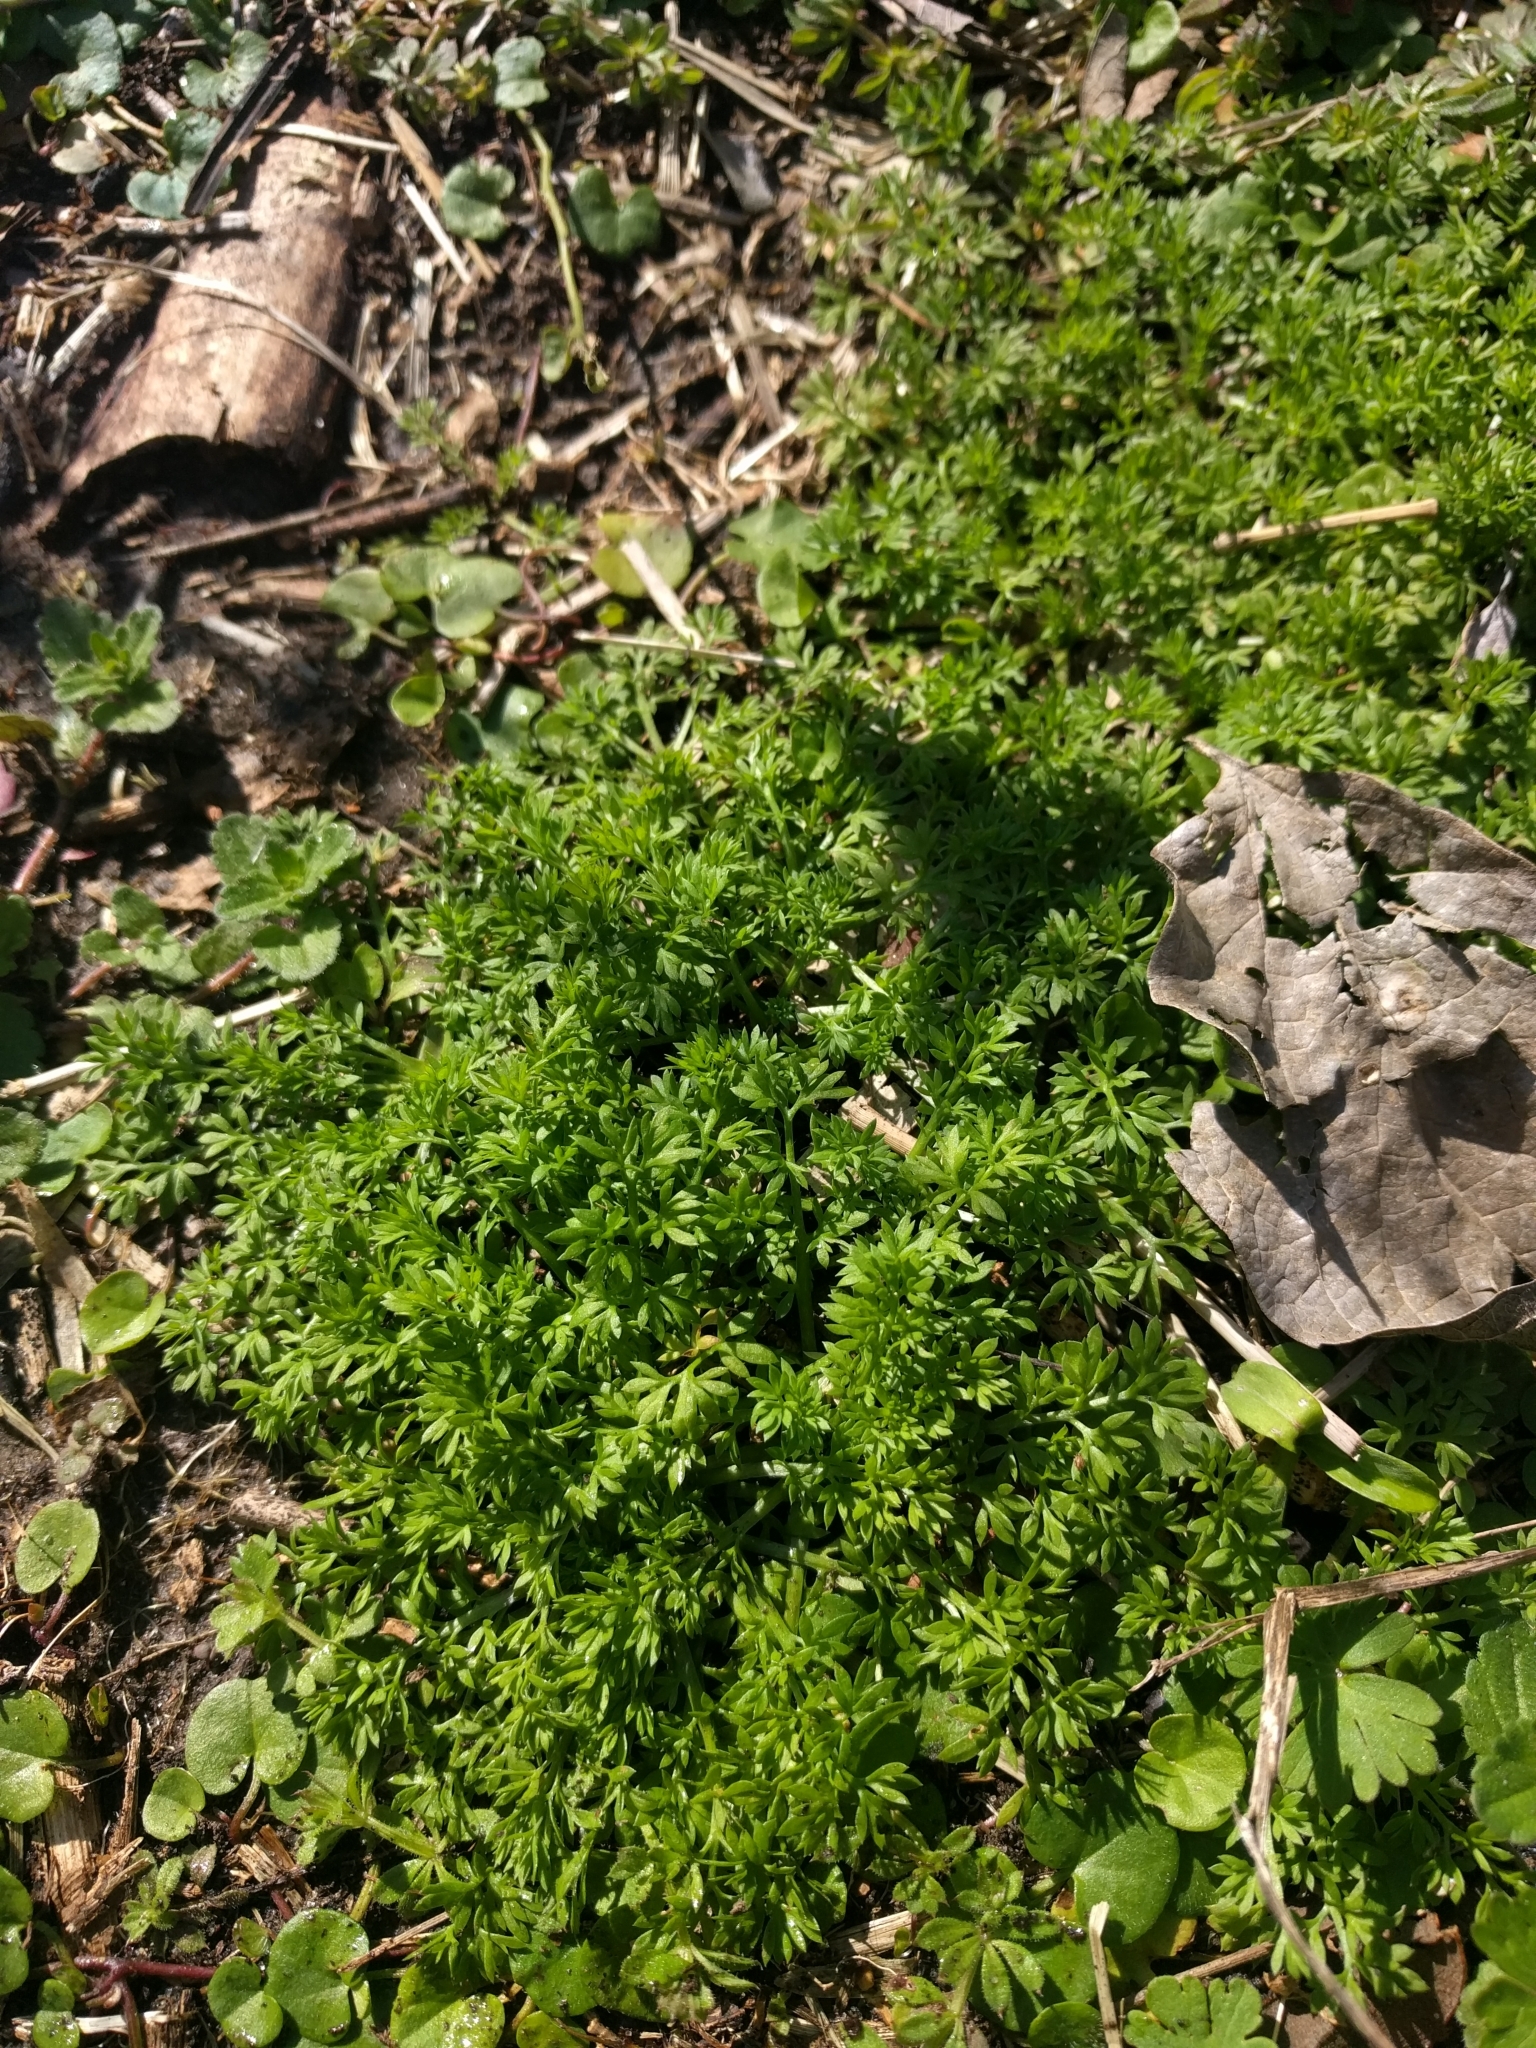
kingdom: Plantae
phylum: Tracheophyta
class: Magnoliopsida
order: Asterales
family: Asteraceae
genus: Soliva
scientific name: Soliva sessilis
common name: Field burrweed
